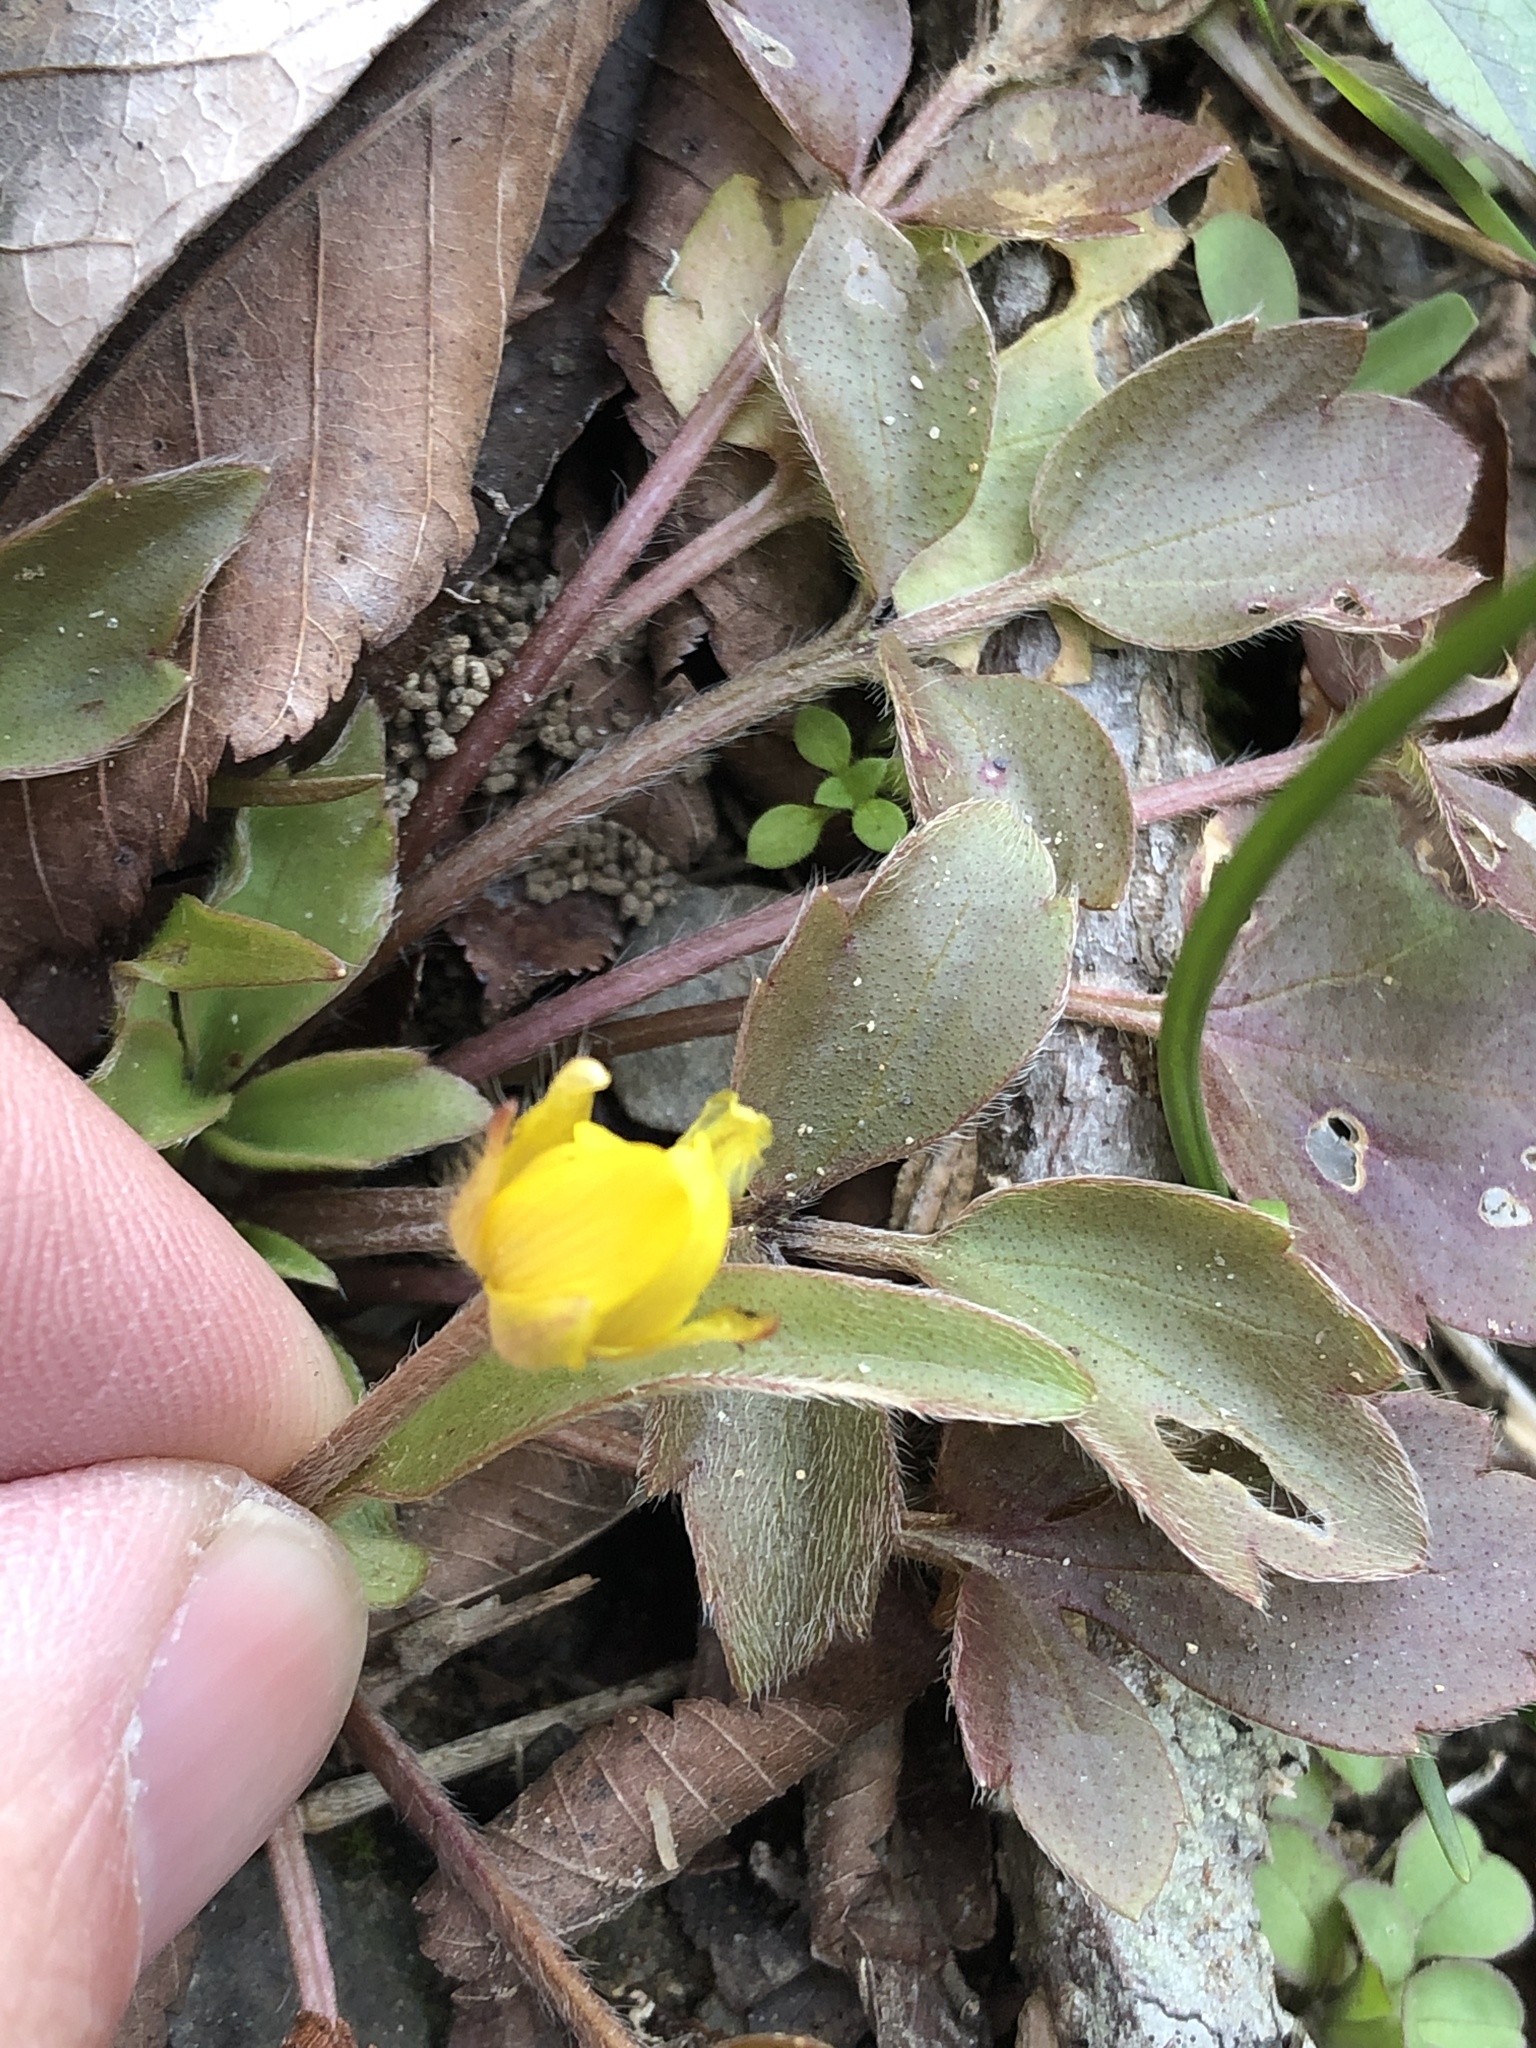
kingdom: Plantae
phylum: Tracheophyta
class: Magnoliopsida
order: Ranunculales
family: Ranunculaceae
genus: Ranunculus
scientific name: Ranunculus fascicularis
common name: Early buttercup
